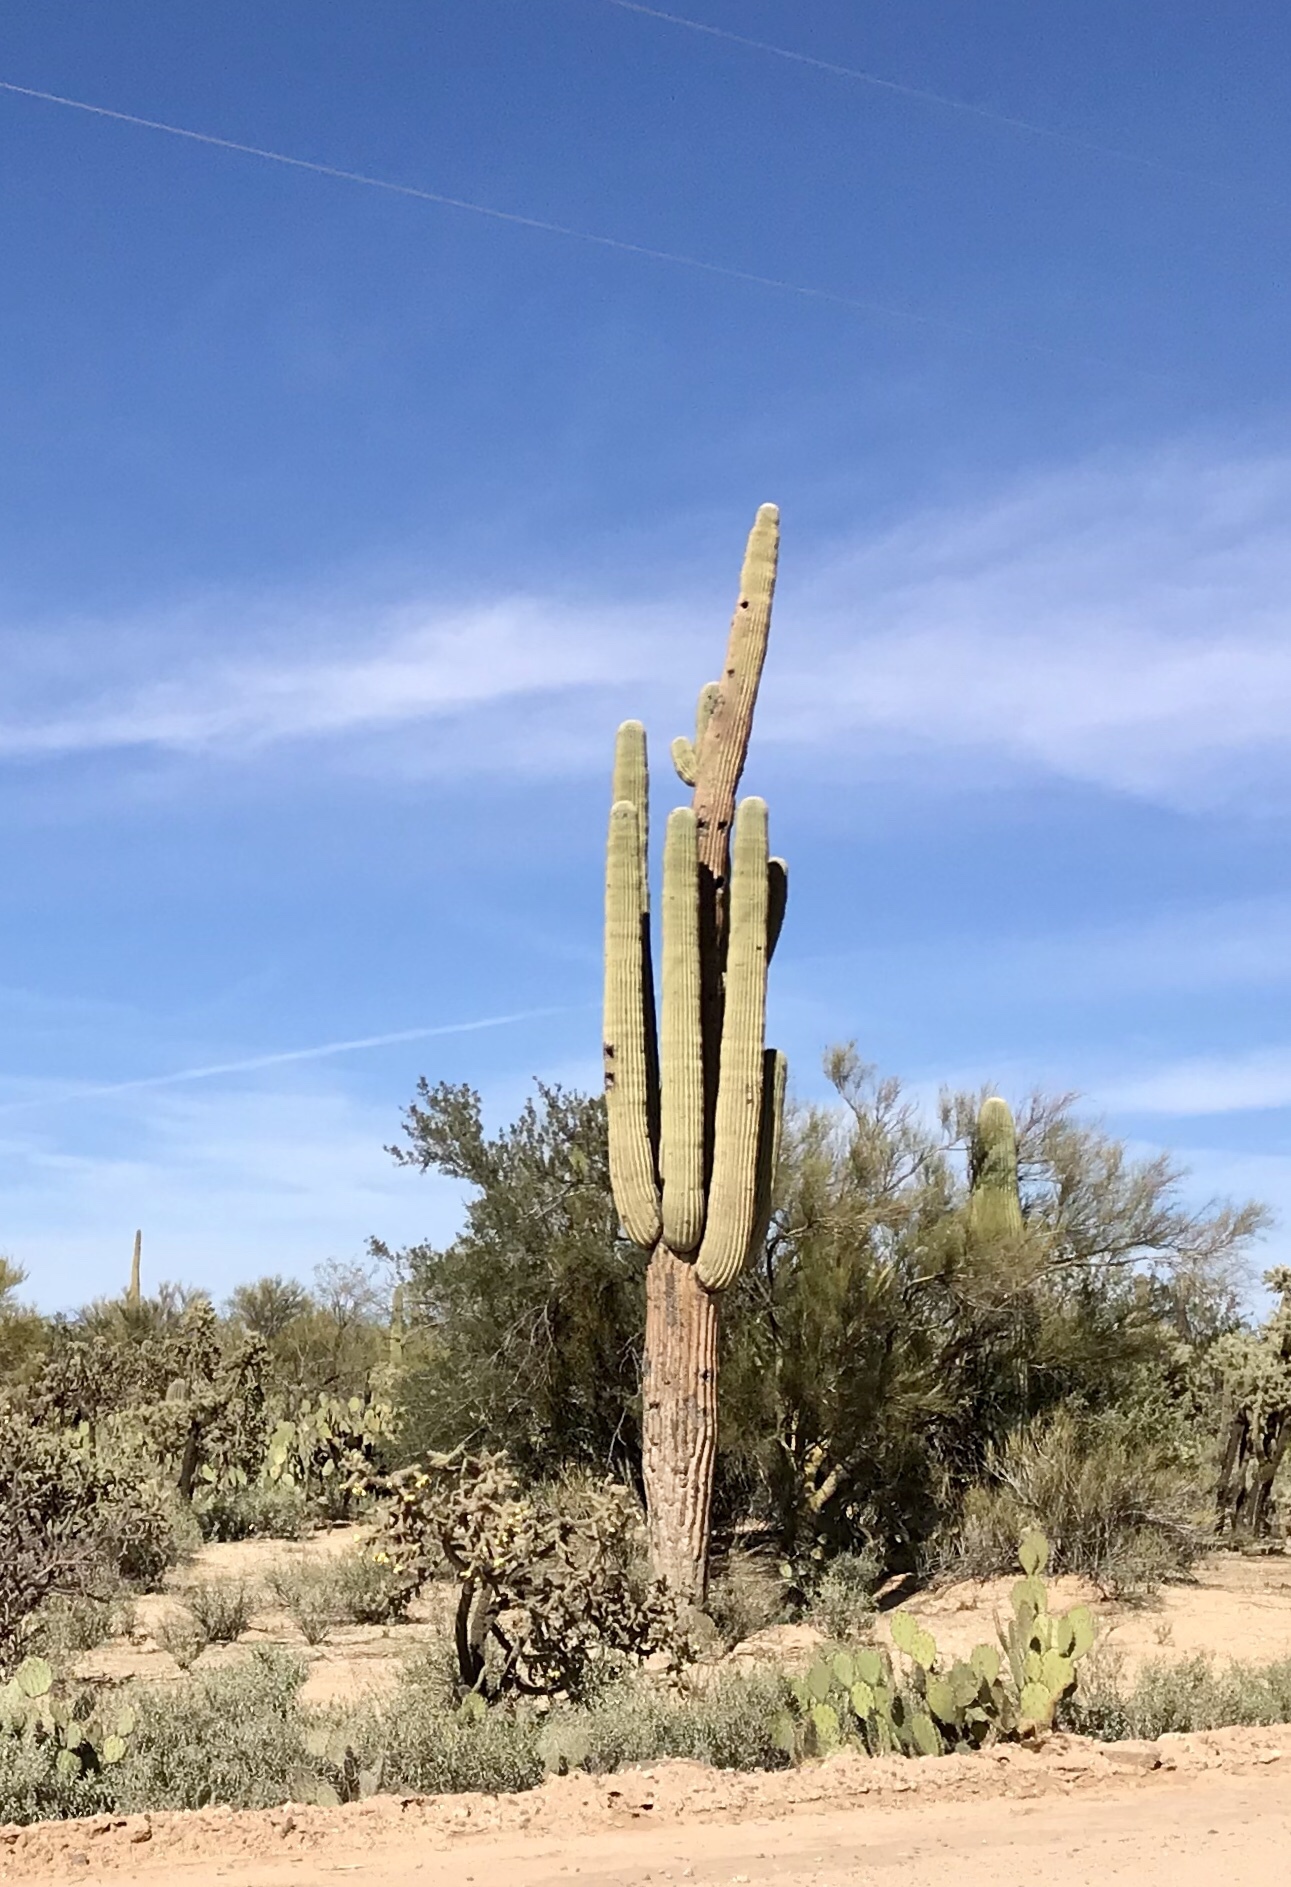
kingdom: Plantae
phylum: Tracheophyta
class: Magnoliopsida
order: Caryophyllales
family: Cactaceae
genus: Carnegiea
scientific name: Carnegiea gigantea
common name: Saguaro
